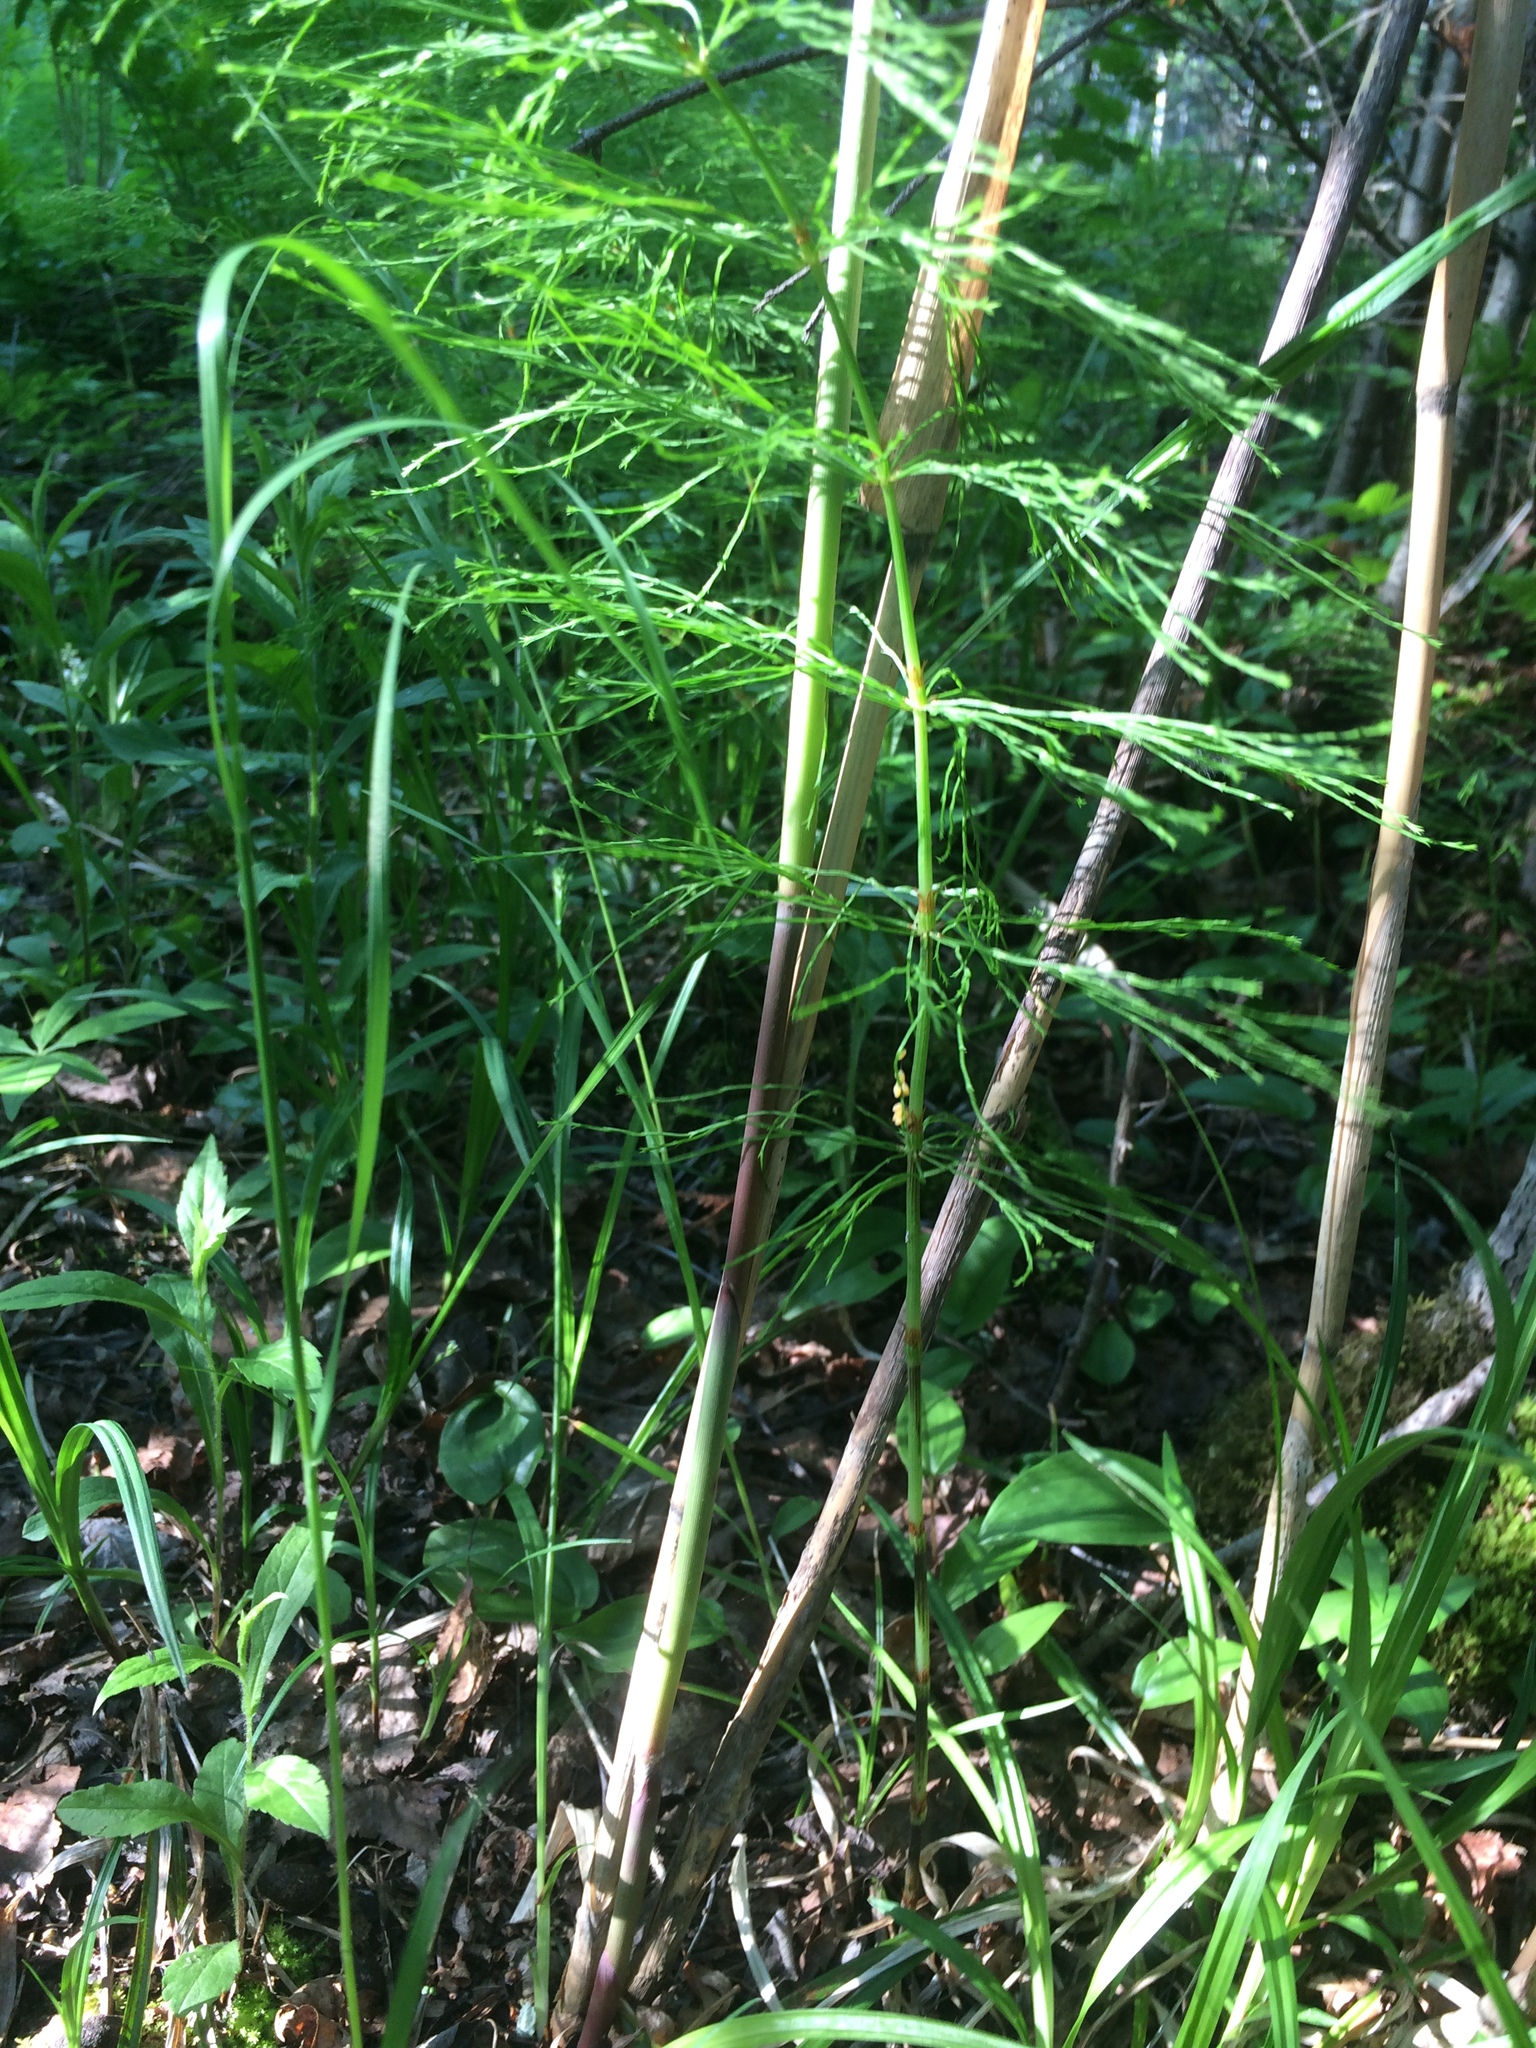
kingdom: Plantae
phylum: Tracheophyta
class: Polypodiopsida
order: Equisetales
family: Equisetaceae
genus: Equisetum
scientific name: Equisetum sylvaticum
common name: Wood horsetail
